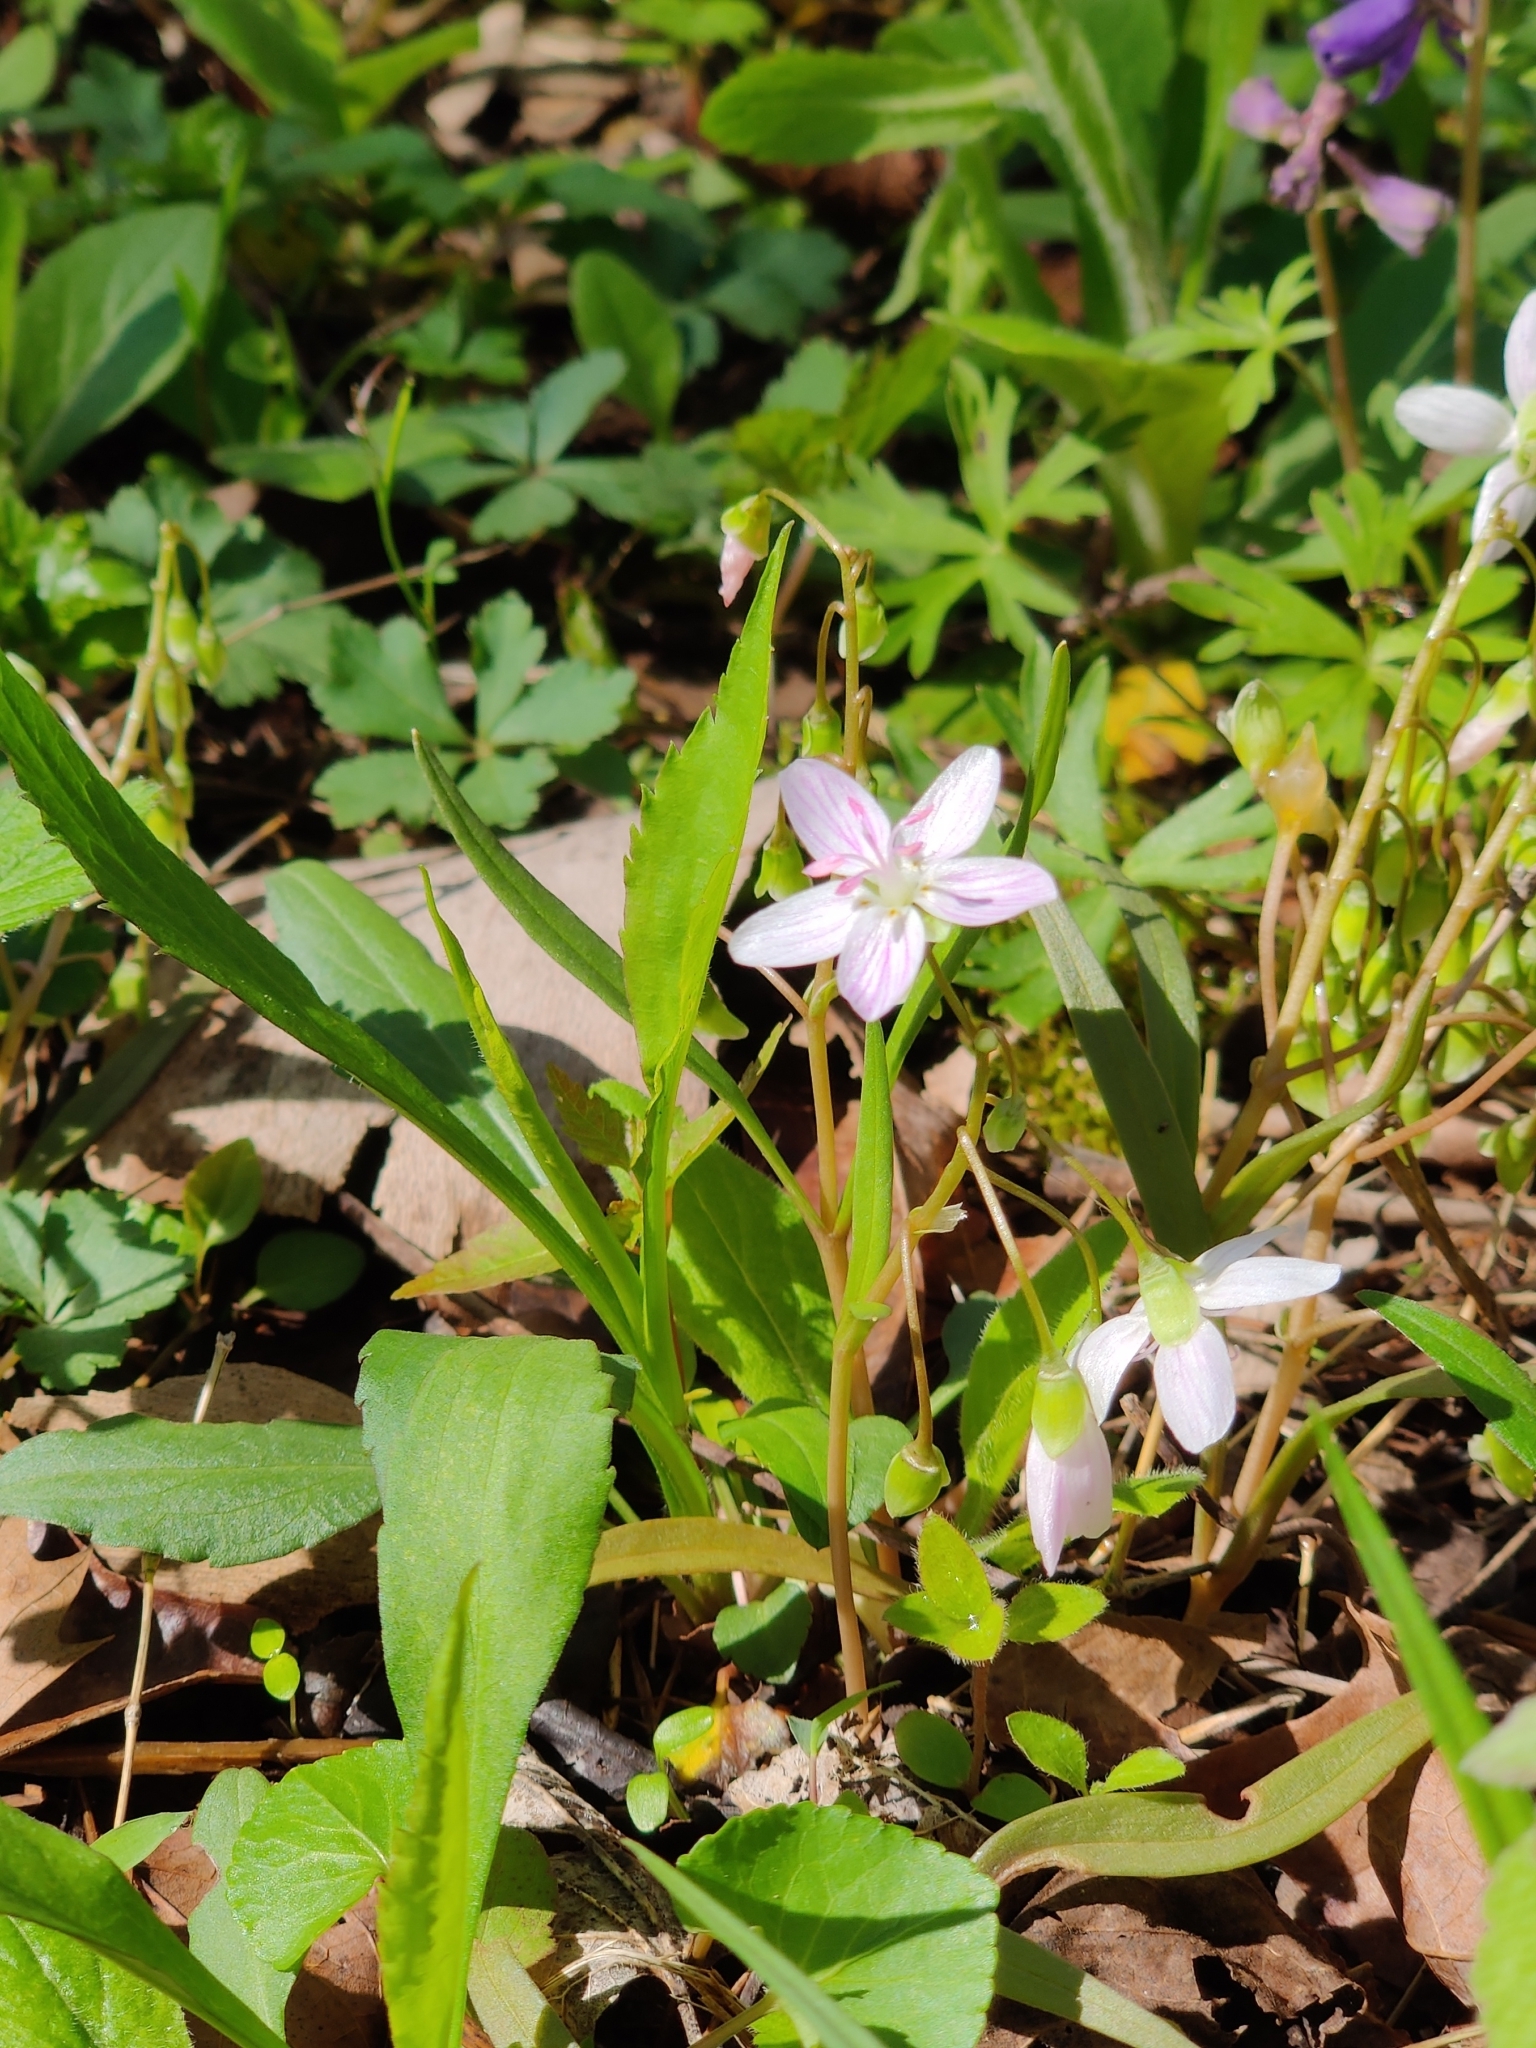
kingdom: Plantae
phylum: Tracheophyta
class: Magnoliopsida
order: Caryophyllales
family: Montiaceae
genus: Claytonia
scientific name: Claytonia virginica
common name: Virginia springbeauty
